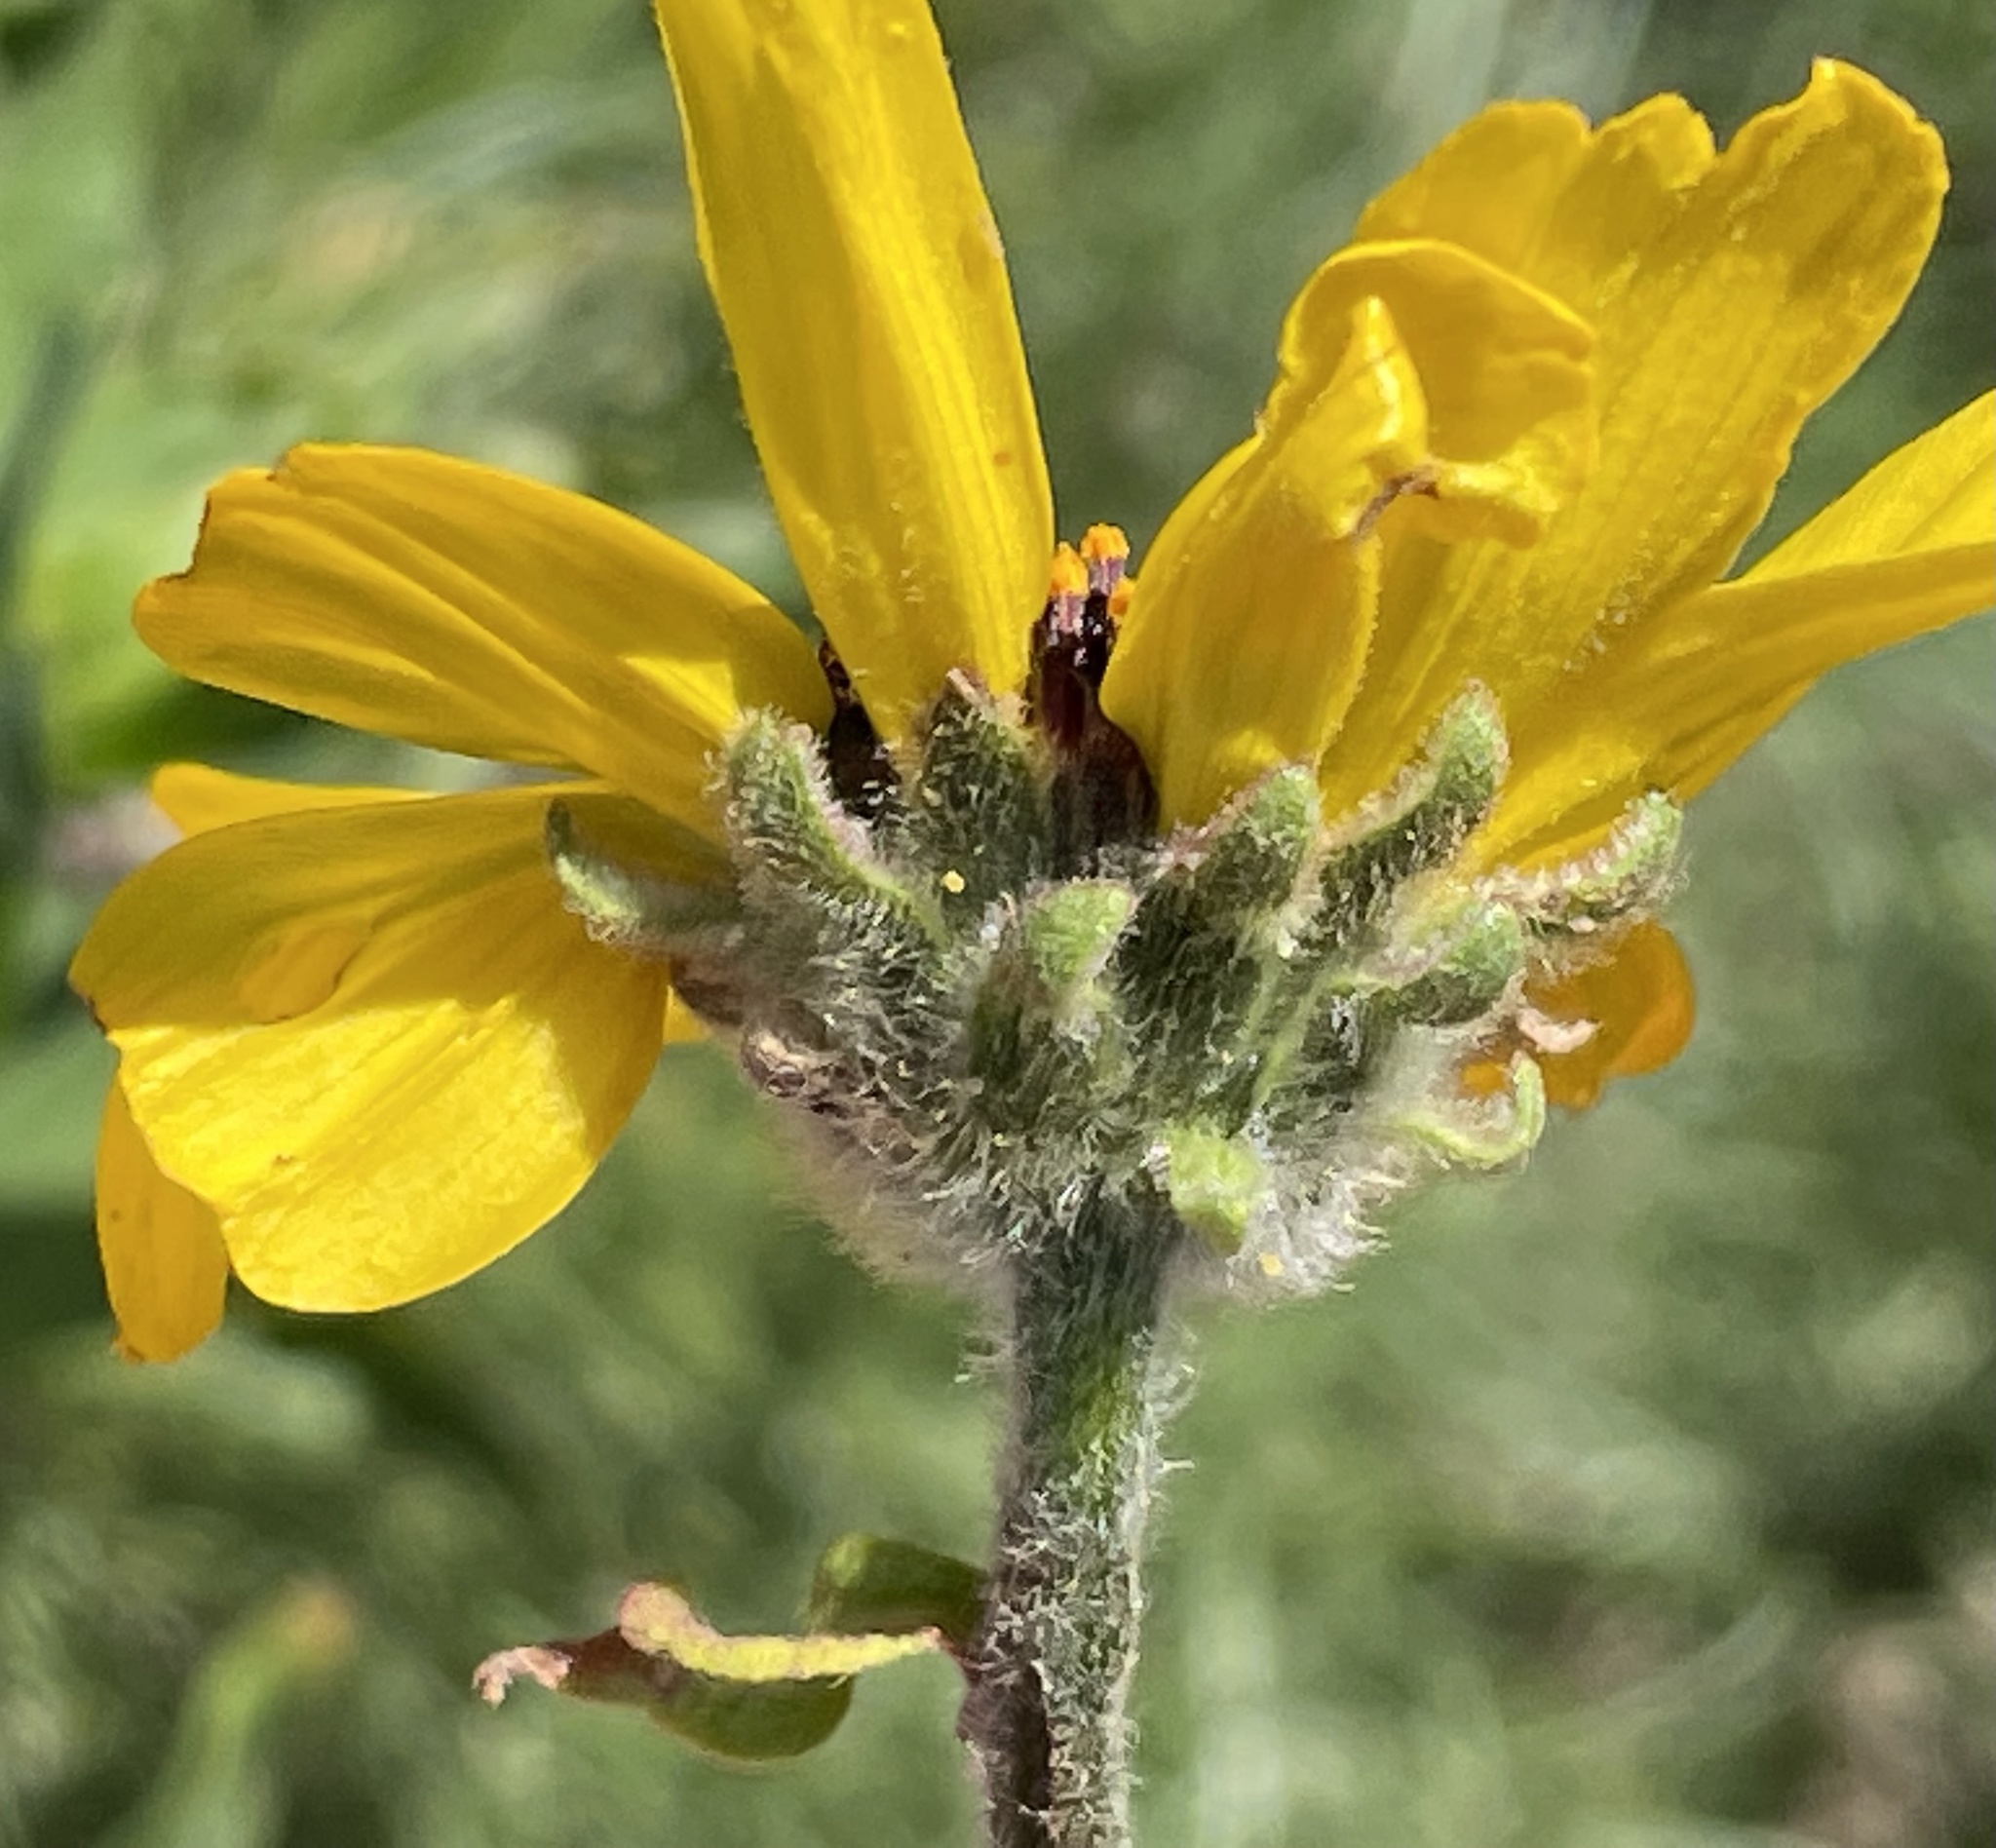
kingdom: Plantae
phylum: Tracheophyta
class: Magnoliopsida
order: Asterales
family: Asteraceae
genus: Encelia
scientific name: Encelia californica
